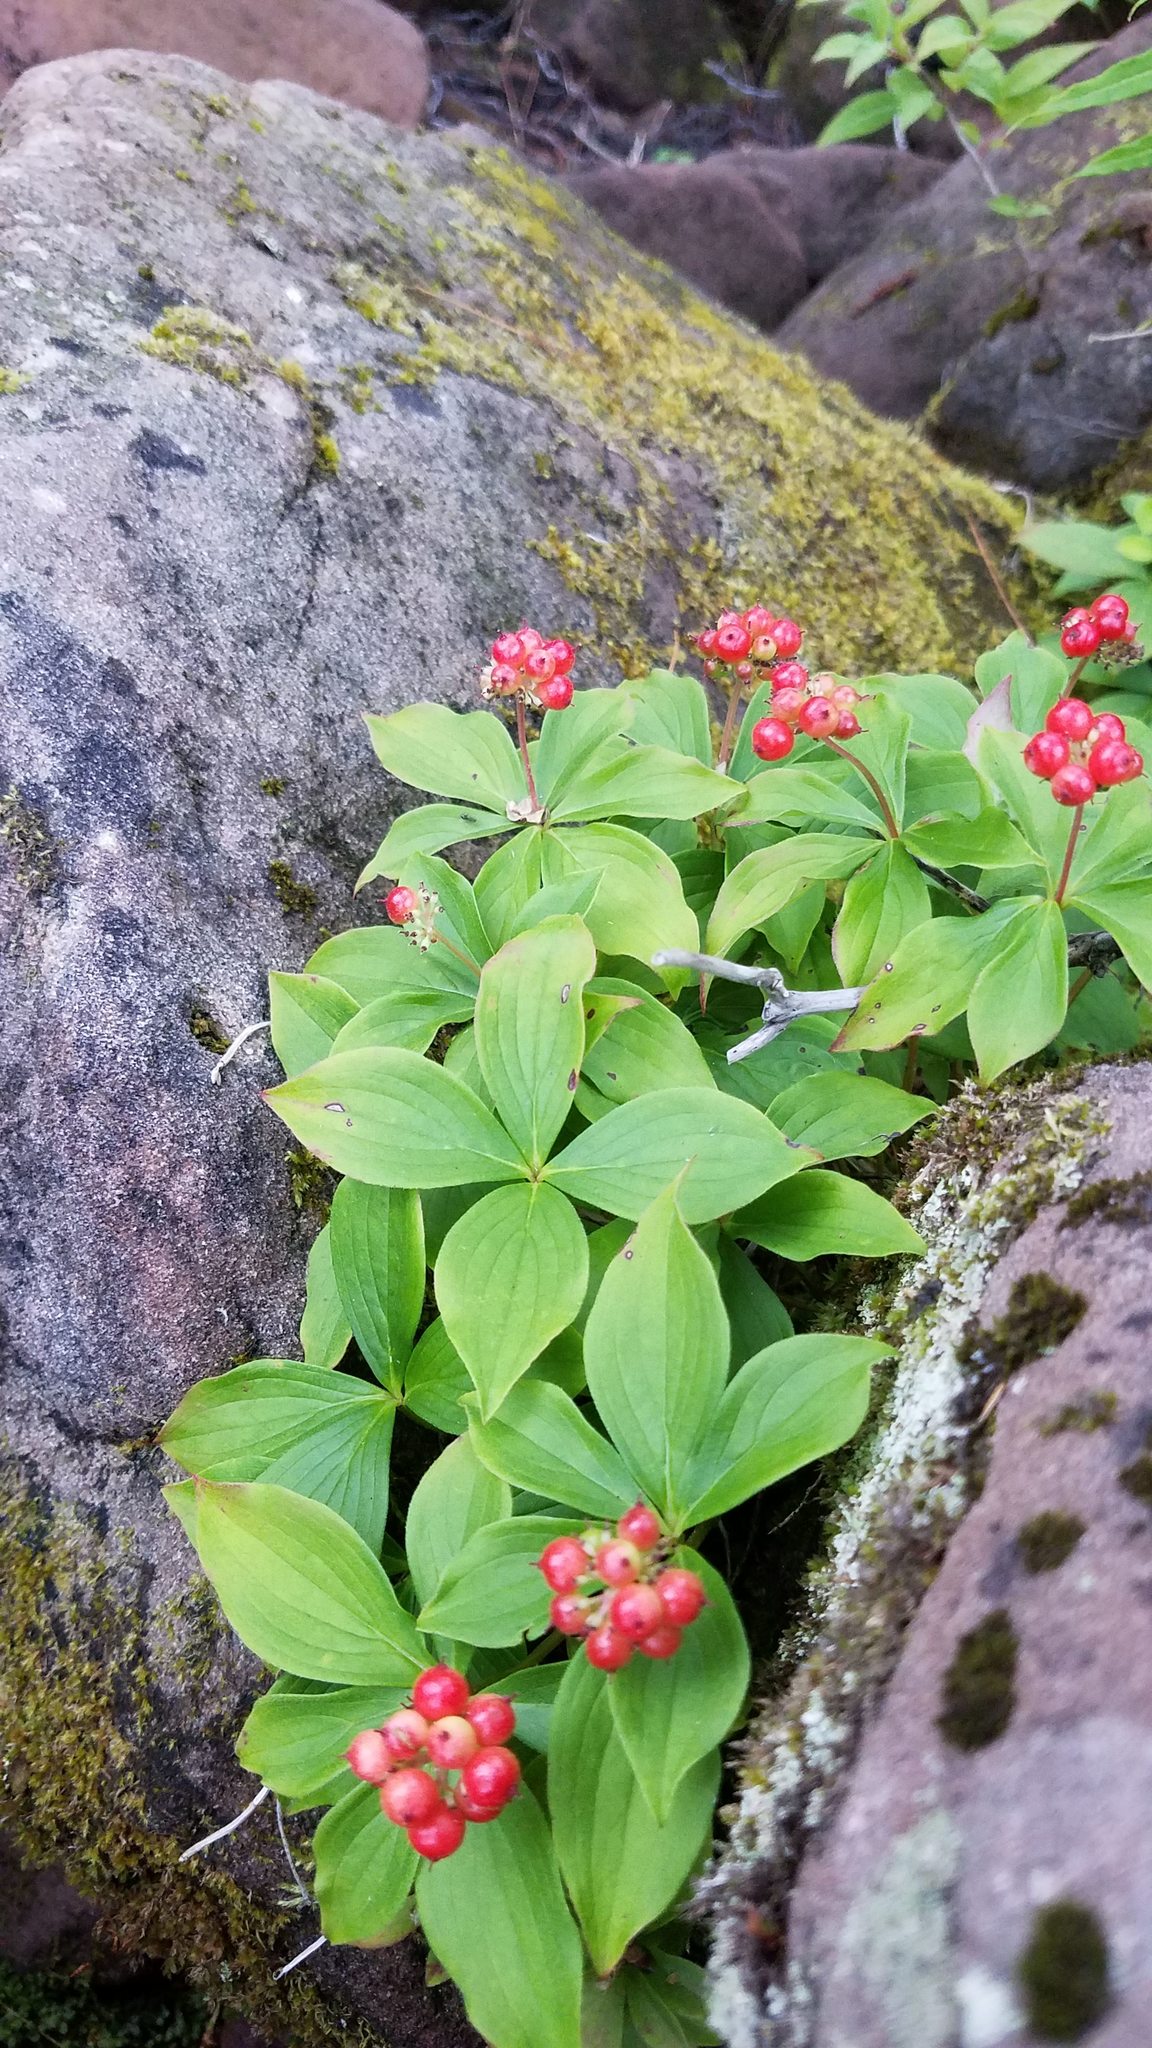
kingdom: Plantae
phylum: Tracheophyta
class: Magnoliopsida
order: Cornales
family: Cornaceae
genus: Cornus
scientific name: Cornus canadensis
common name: Creeping dogwood
